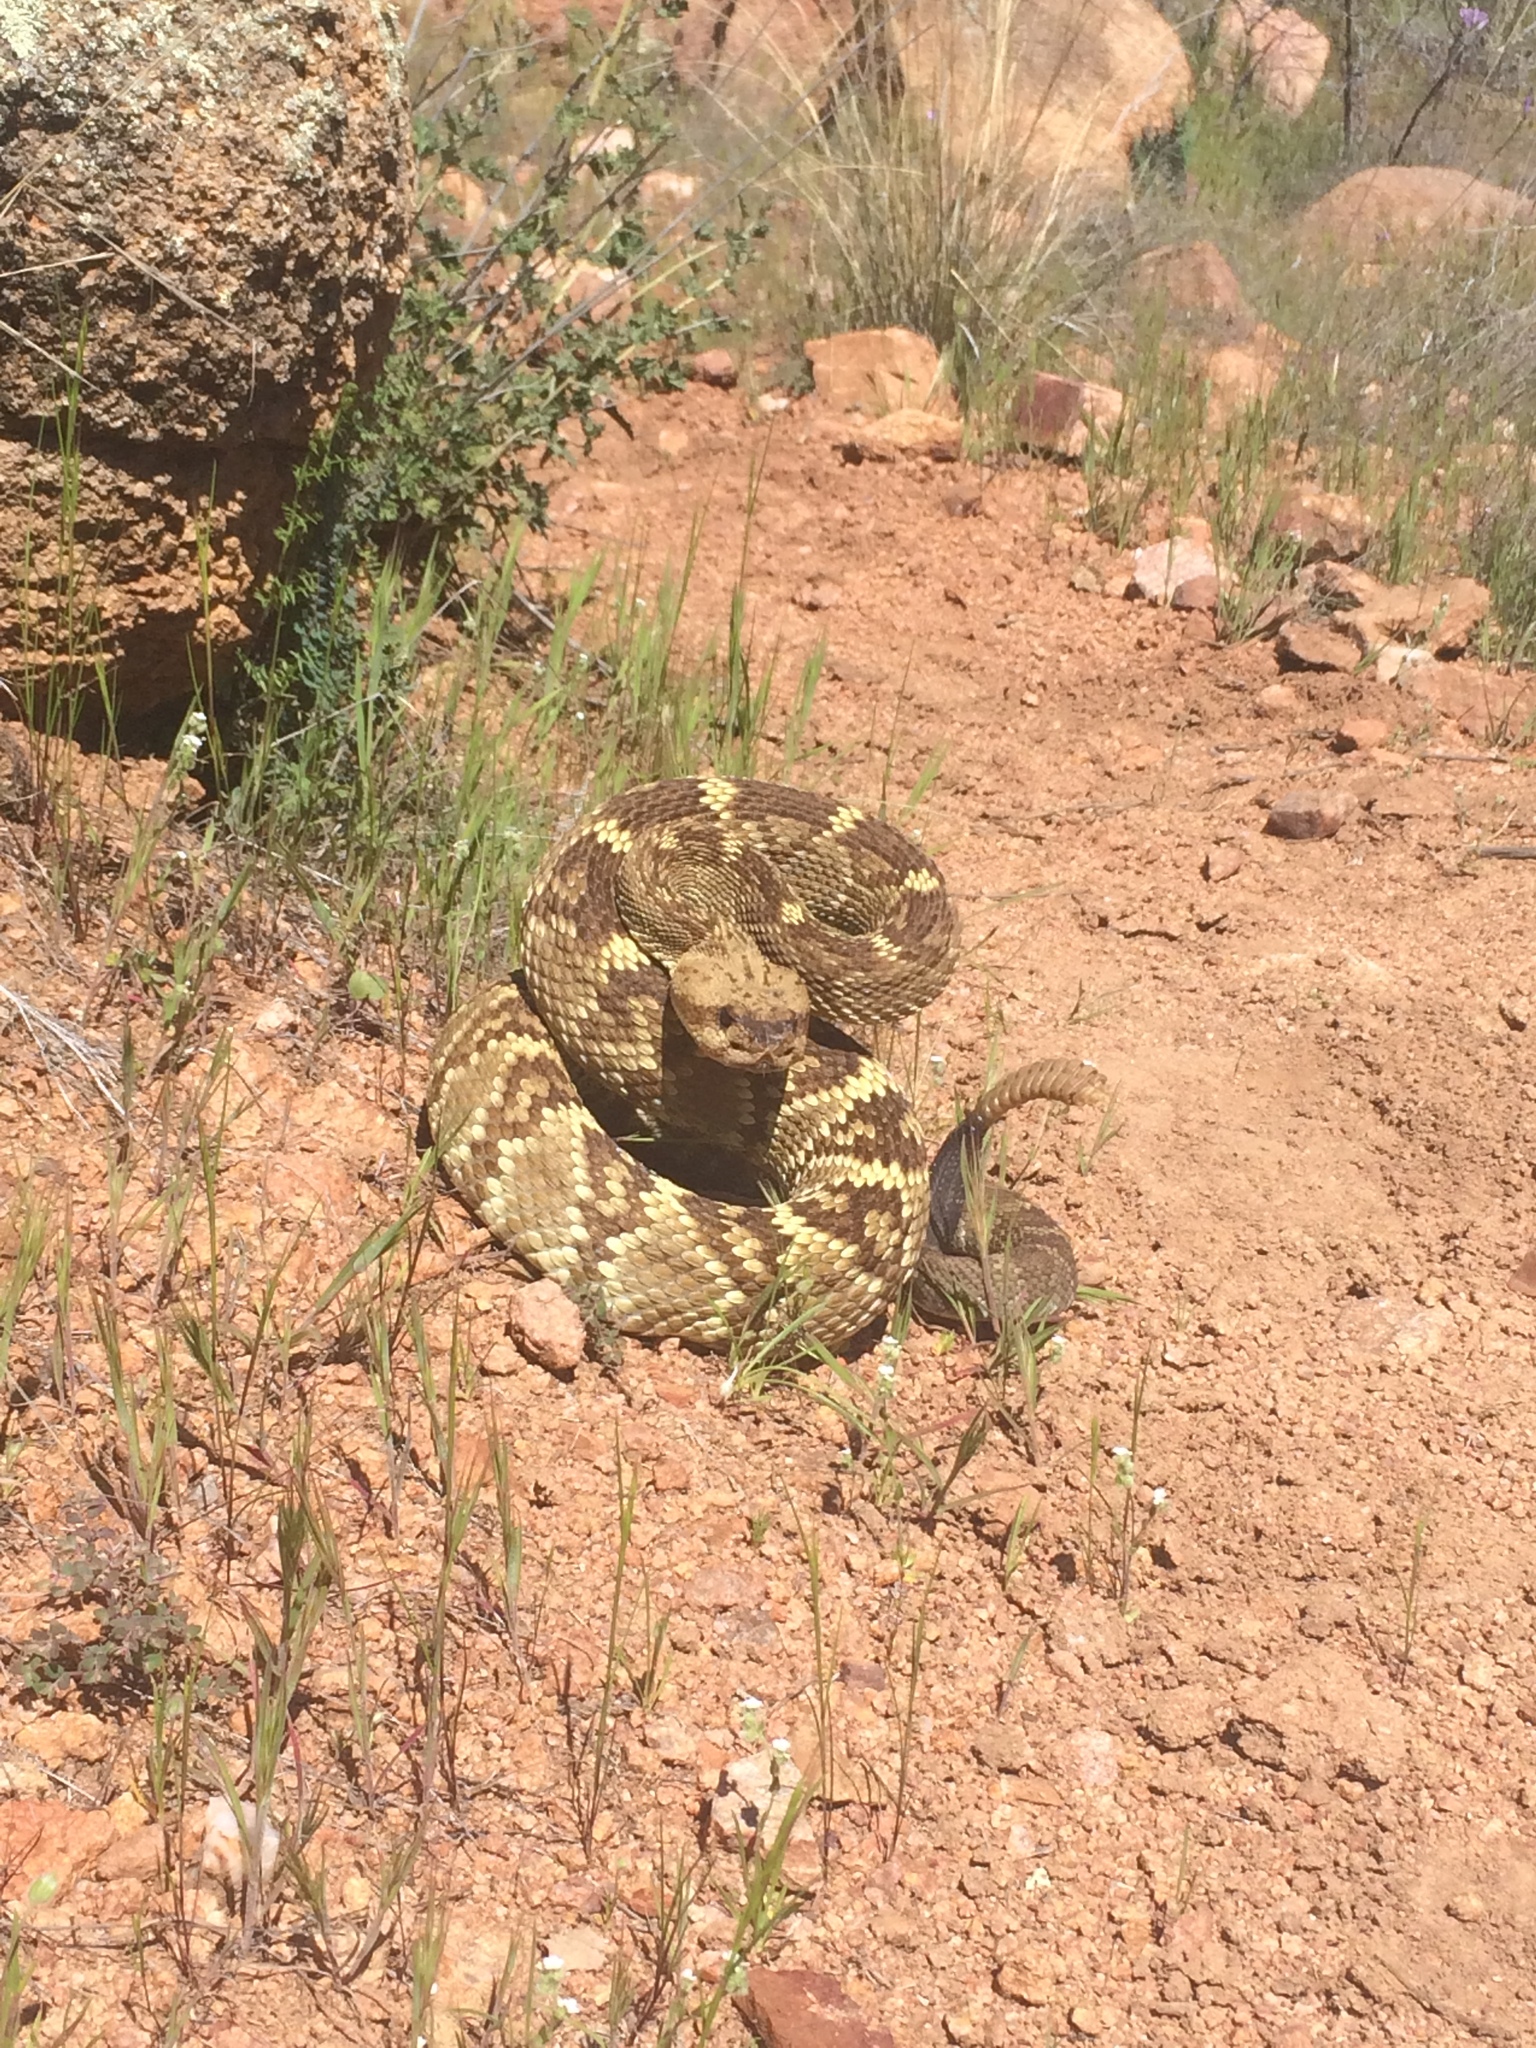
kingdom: Animalia
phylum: Chordata
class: Squamata
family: Viperidae
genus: Crotalus
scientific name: Crotalus molossus
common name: Black tailed rattlesnake
